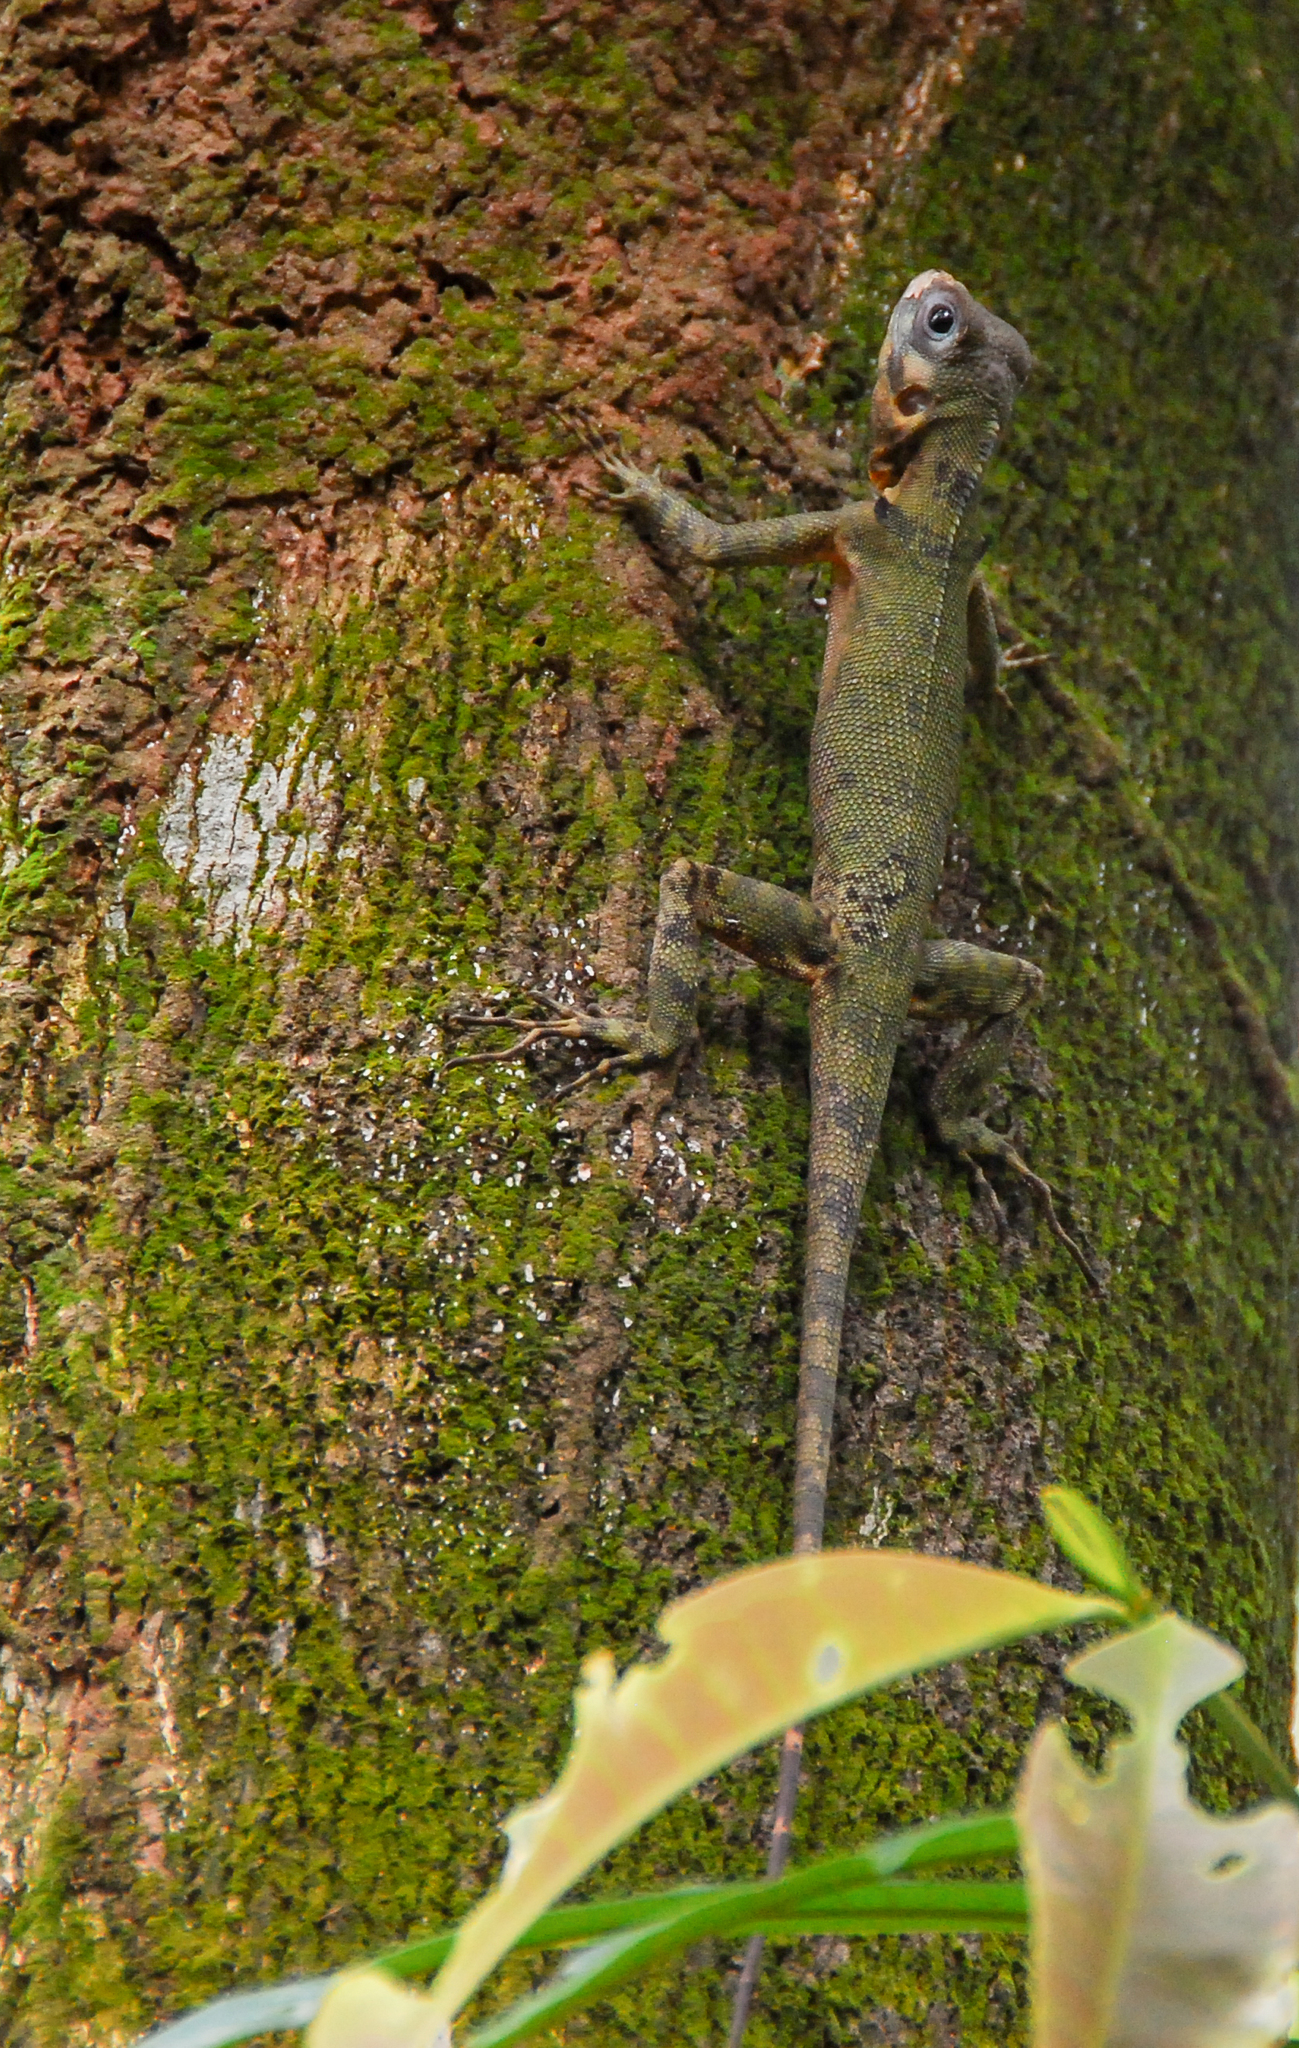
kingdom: Animalia
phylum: Chordata
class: Squamata
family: Tropiduridae
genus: Plica
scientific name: Plica umbra
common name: Harlequin racerunner
